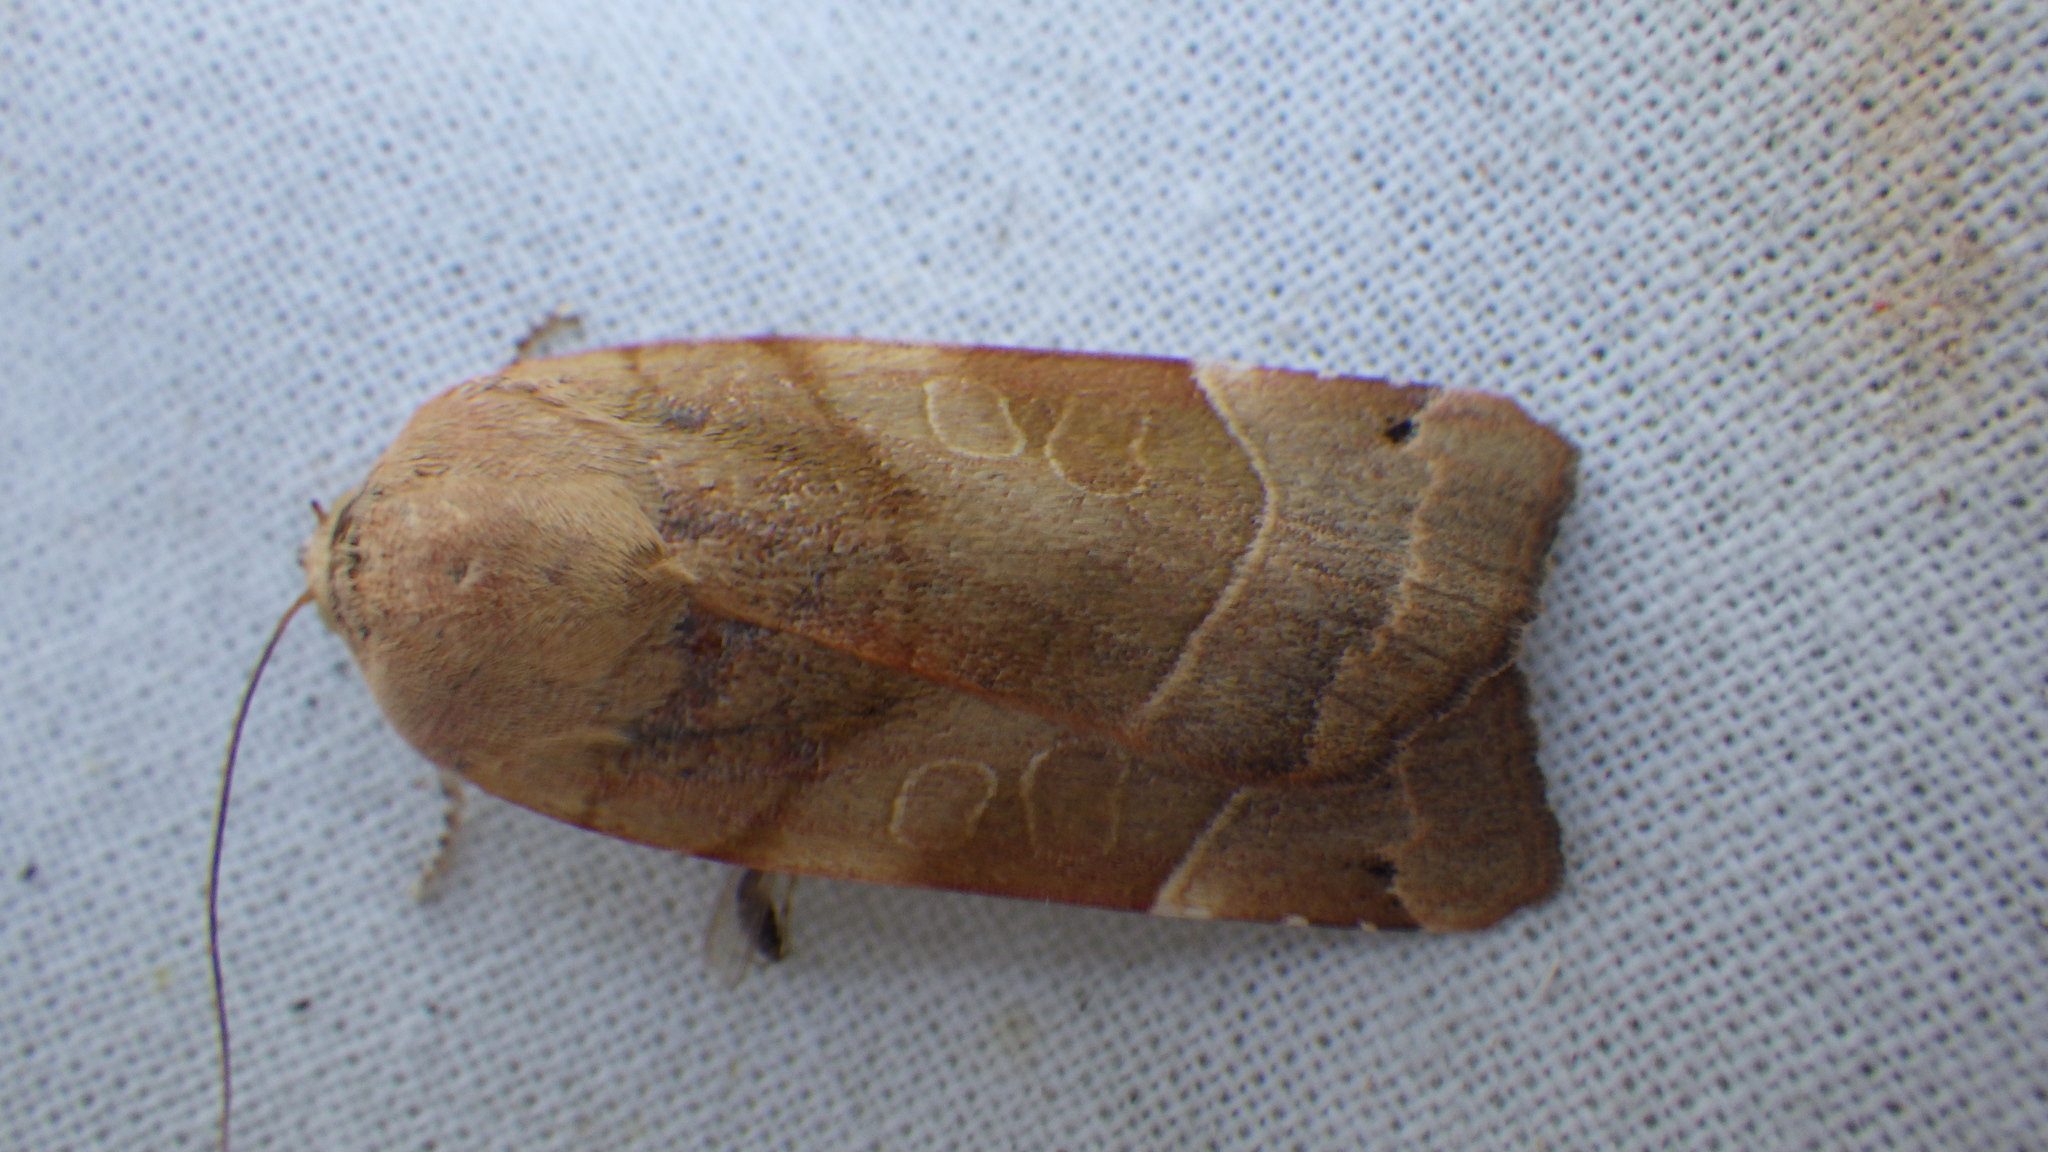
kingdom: Animalia
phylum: Arthropoda
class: Insecta
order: Lepidoptera
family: Noctuidae
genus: Noctua
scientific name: Noctua fimbriata
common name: Broad-bordered yellow underwing
